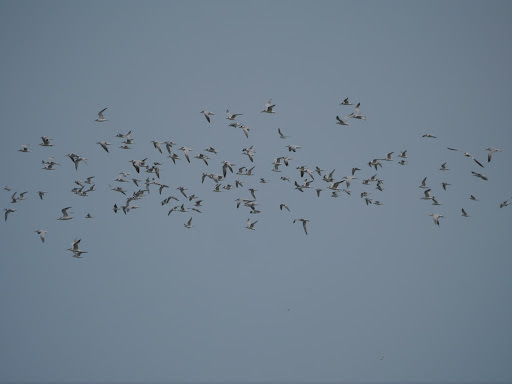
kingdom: Animalia
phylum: Chordata
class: Aves
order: Charadriiformes
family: Laridae
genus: Thalasseus
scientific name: Thalasseus albididorsalis
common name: West african crested tern
